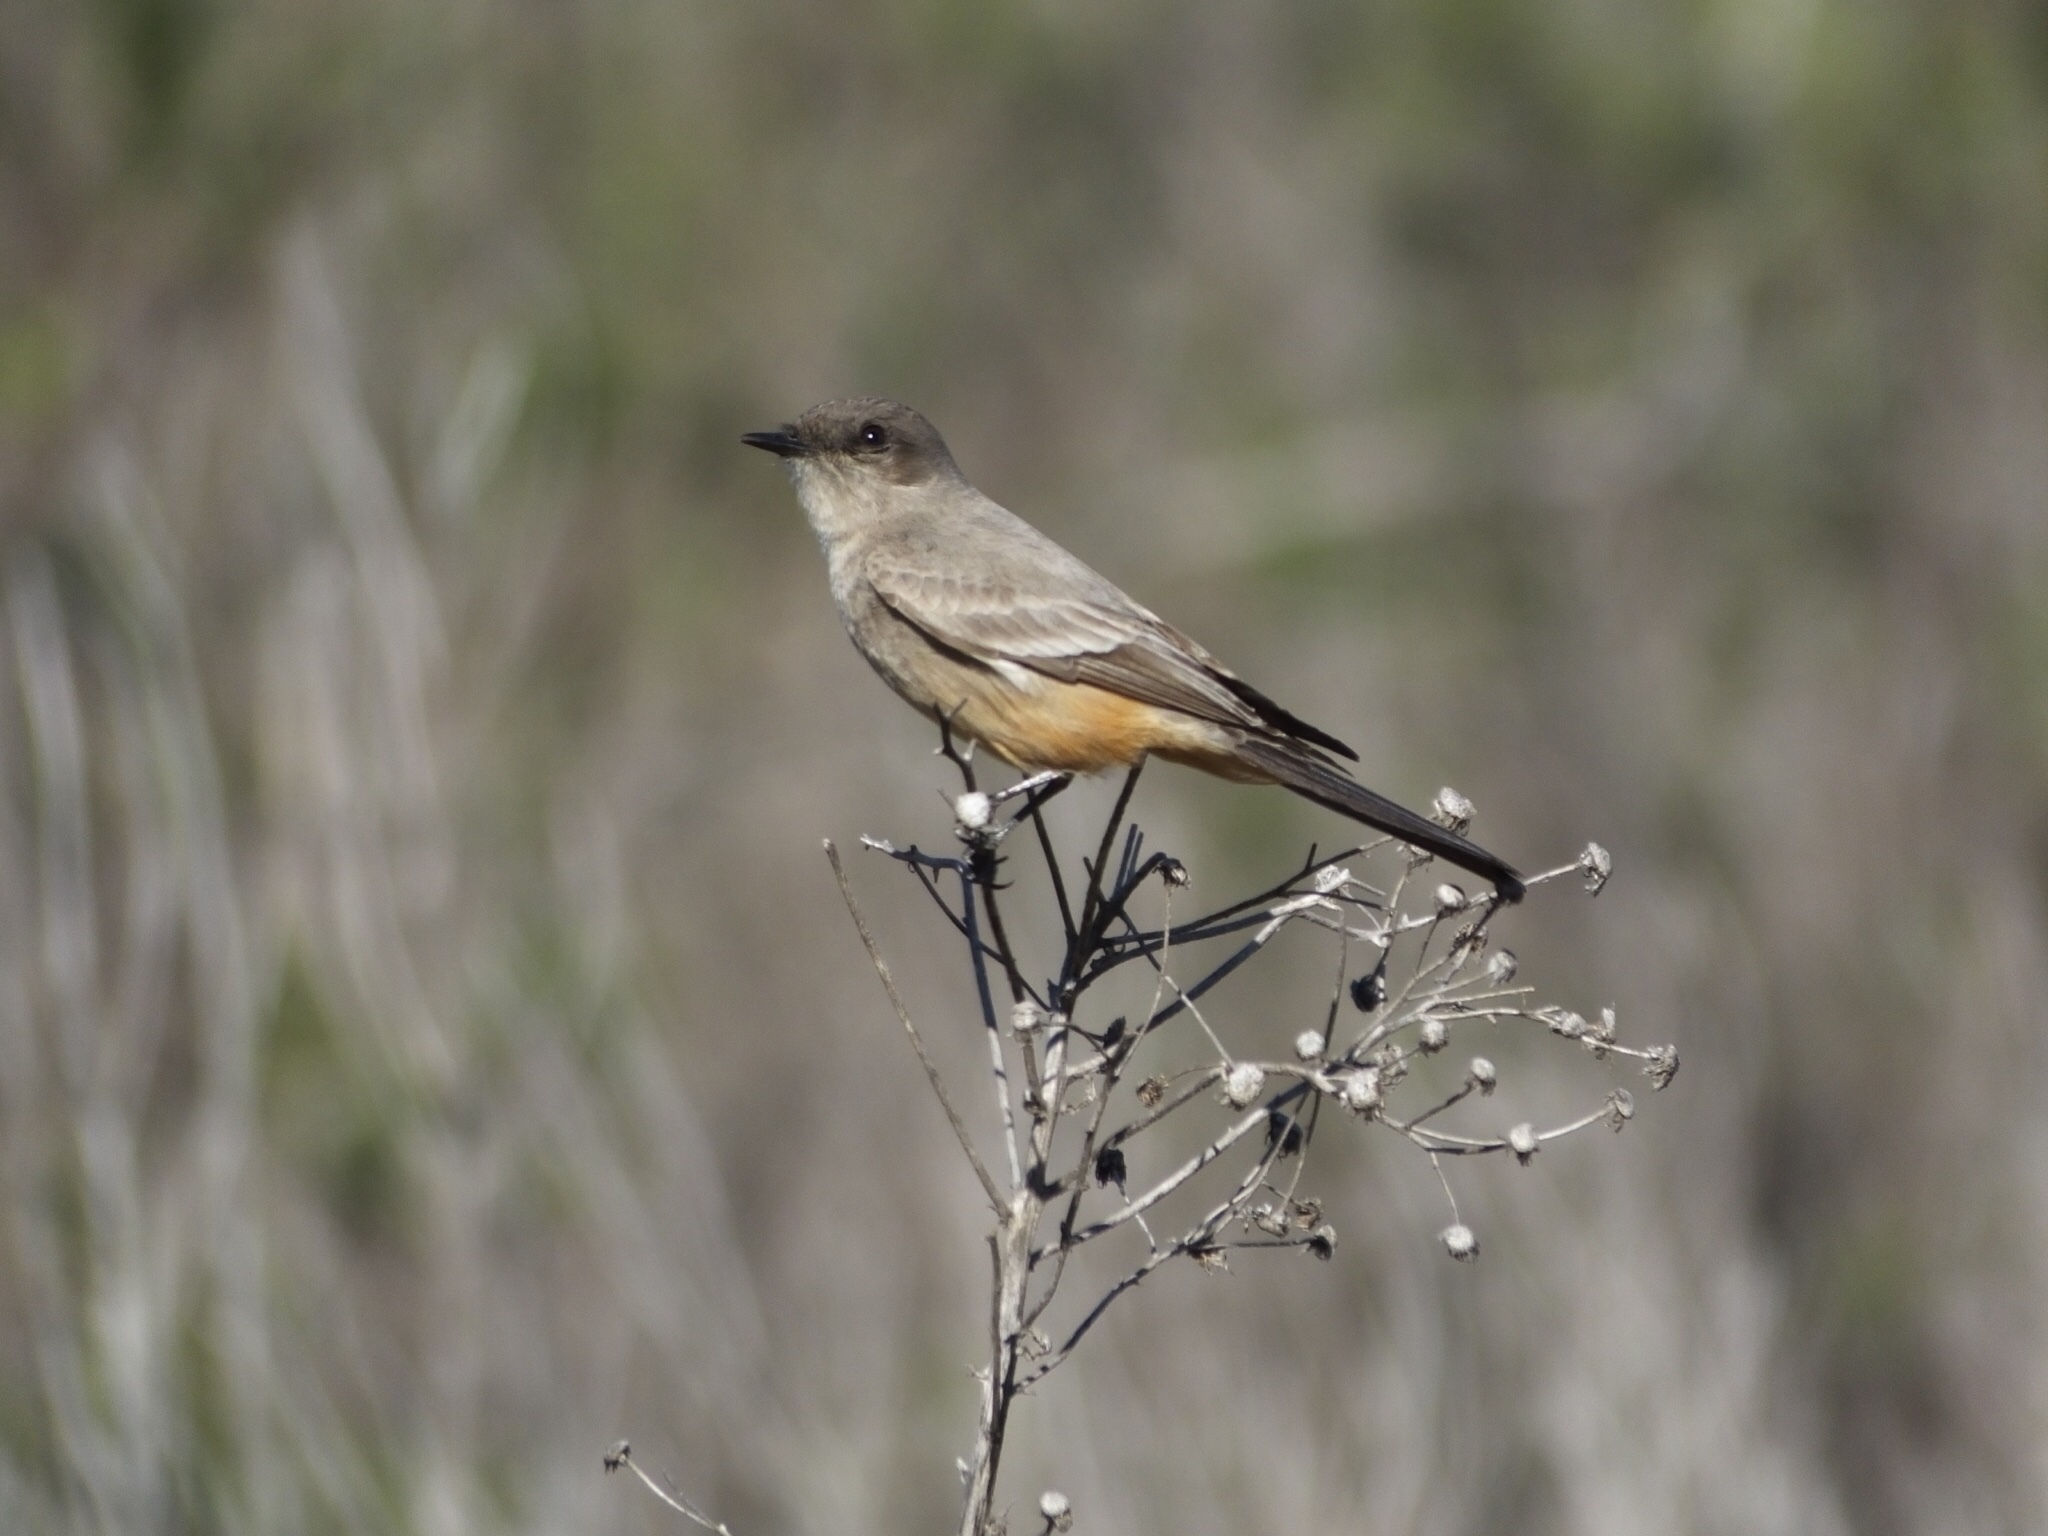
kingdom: Animalia
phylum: Chordata
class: Aves
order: Passeriformes
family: Tyrannidae
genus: Sayornis
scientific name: Sayornis saya
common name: Say's phoebe
